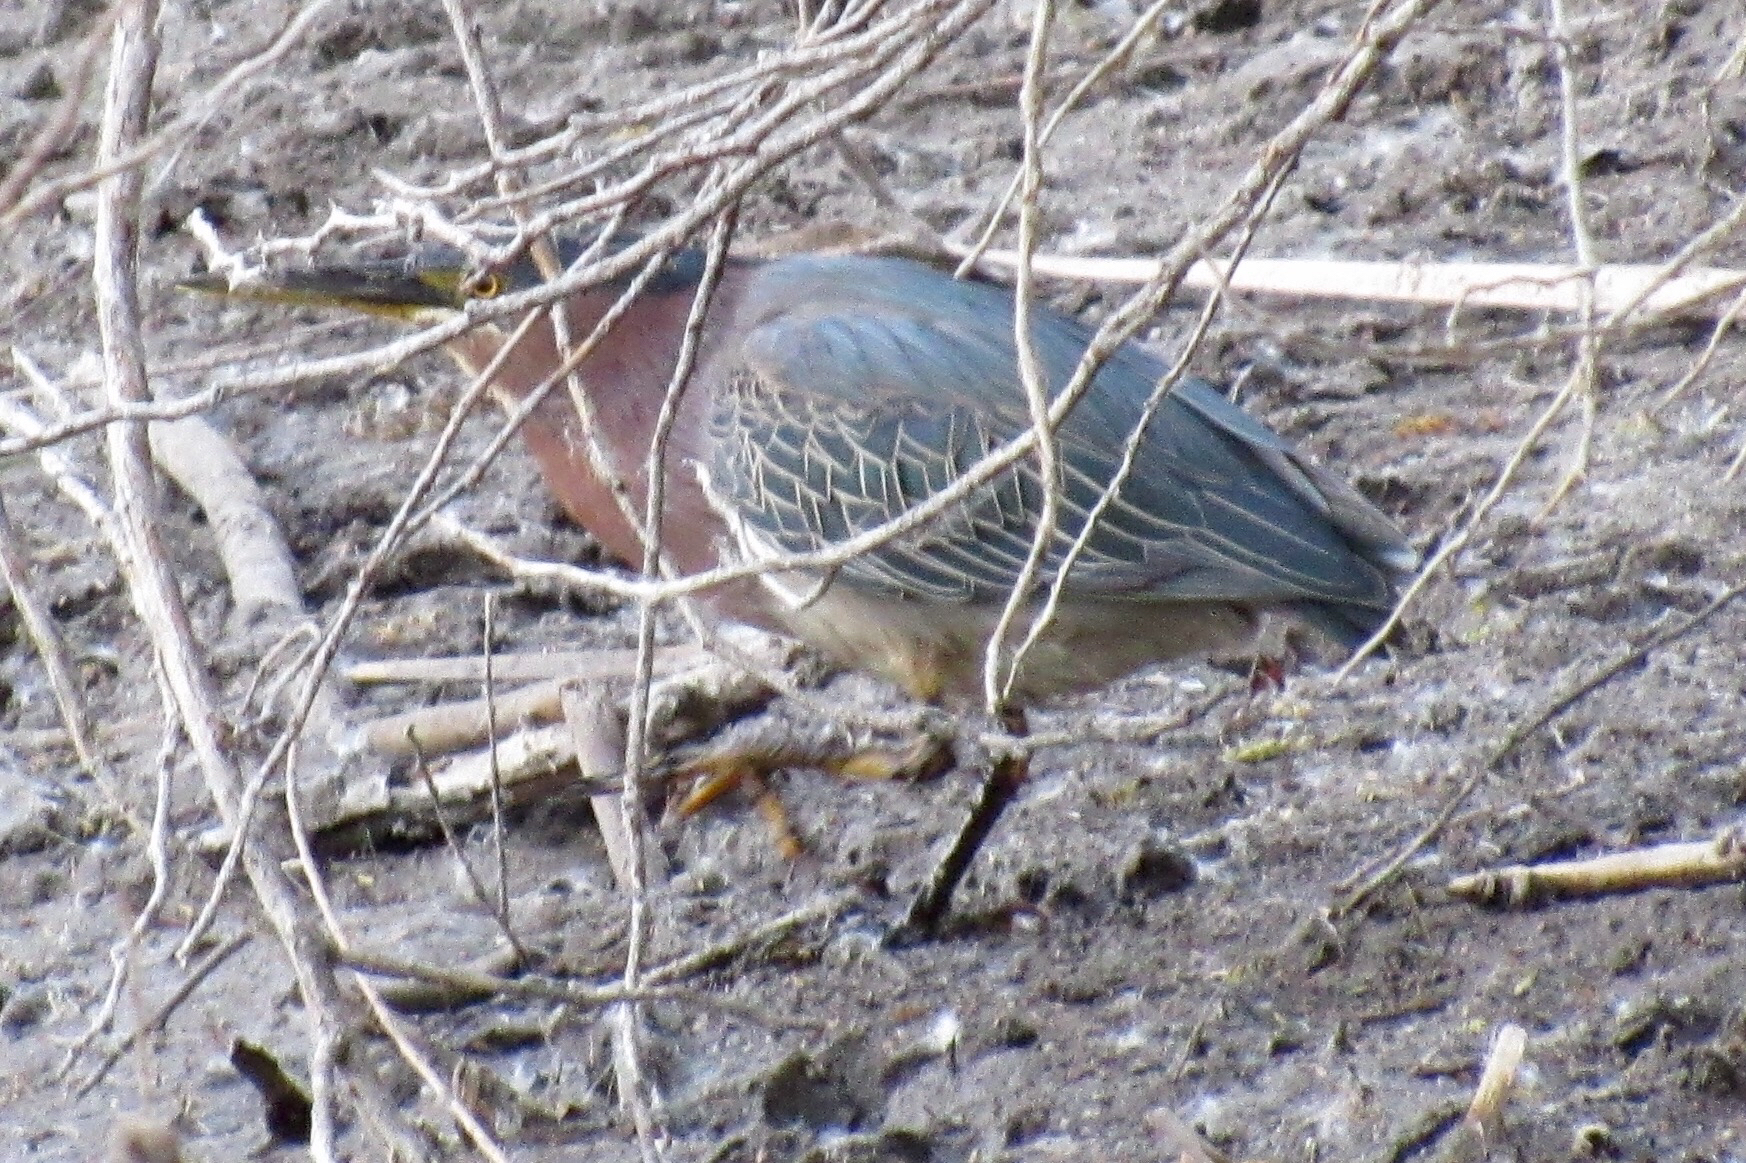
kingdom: Animalia
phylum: Chordata
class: Aves
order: Pelecaniformes
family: Ardeidae
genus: Butorides
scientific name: Butorides virescens
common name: Green heron
